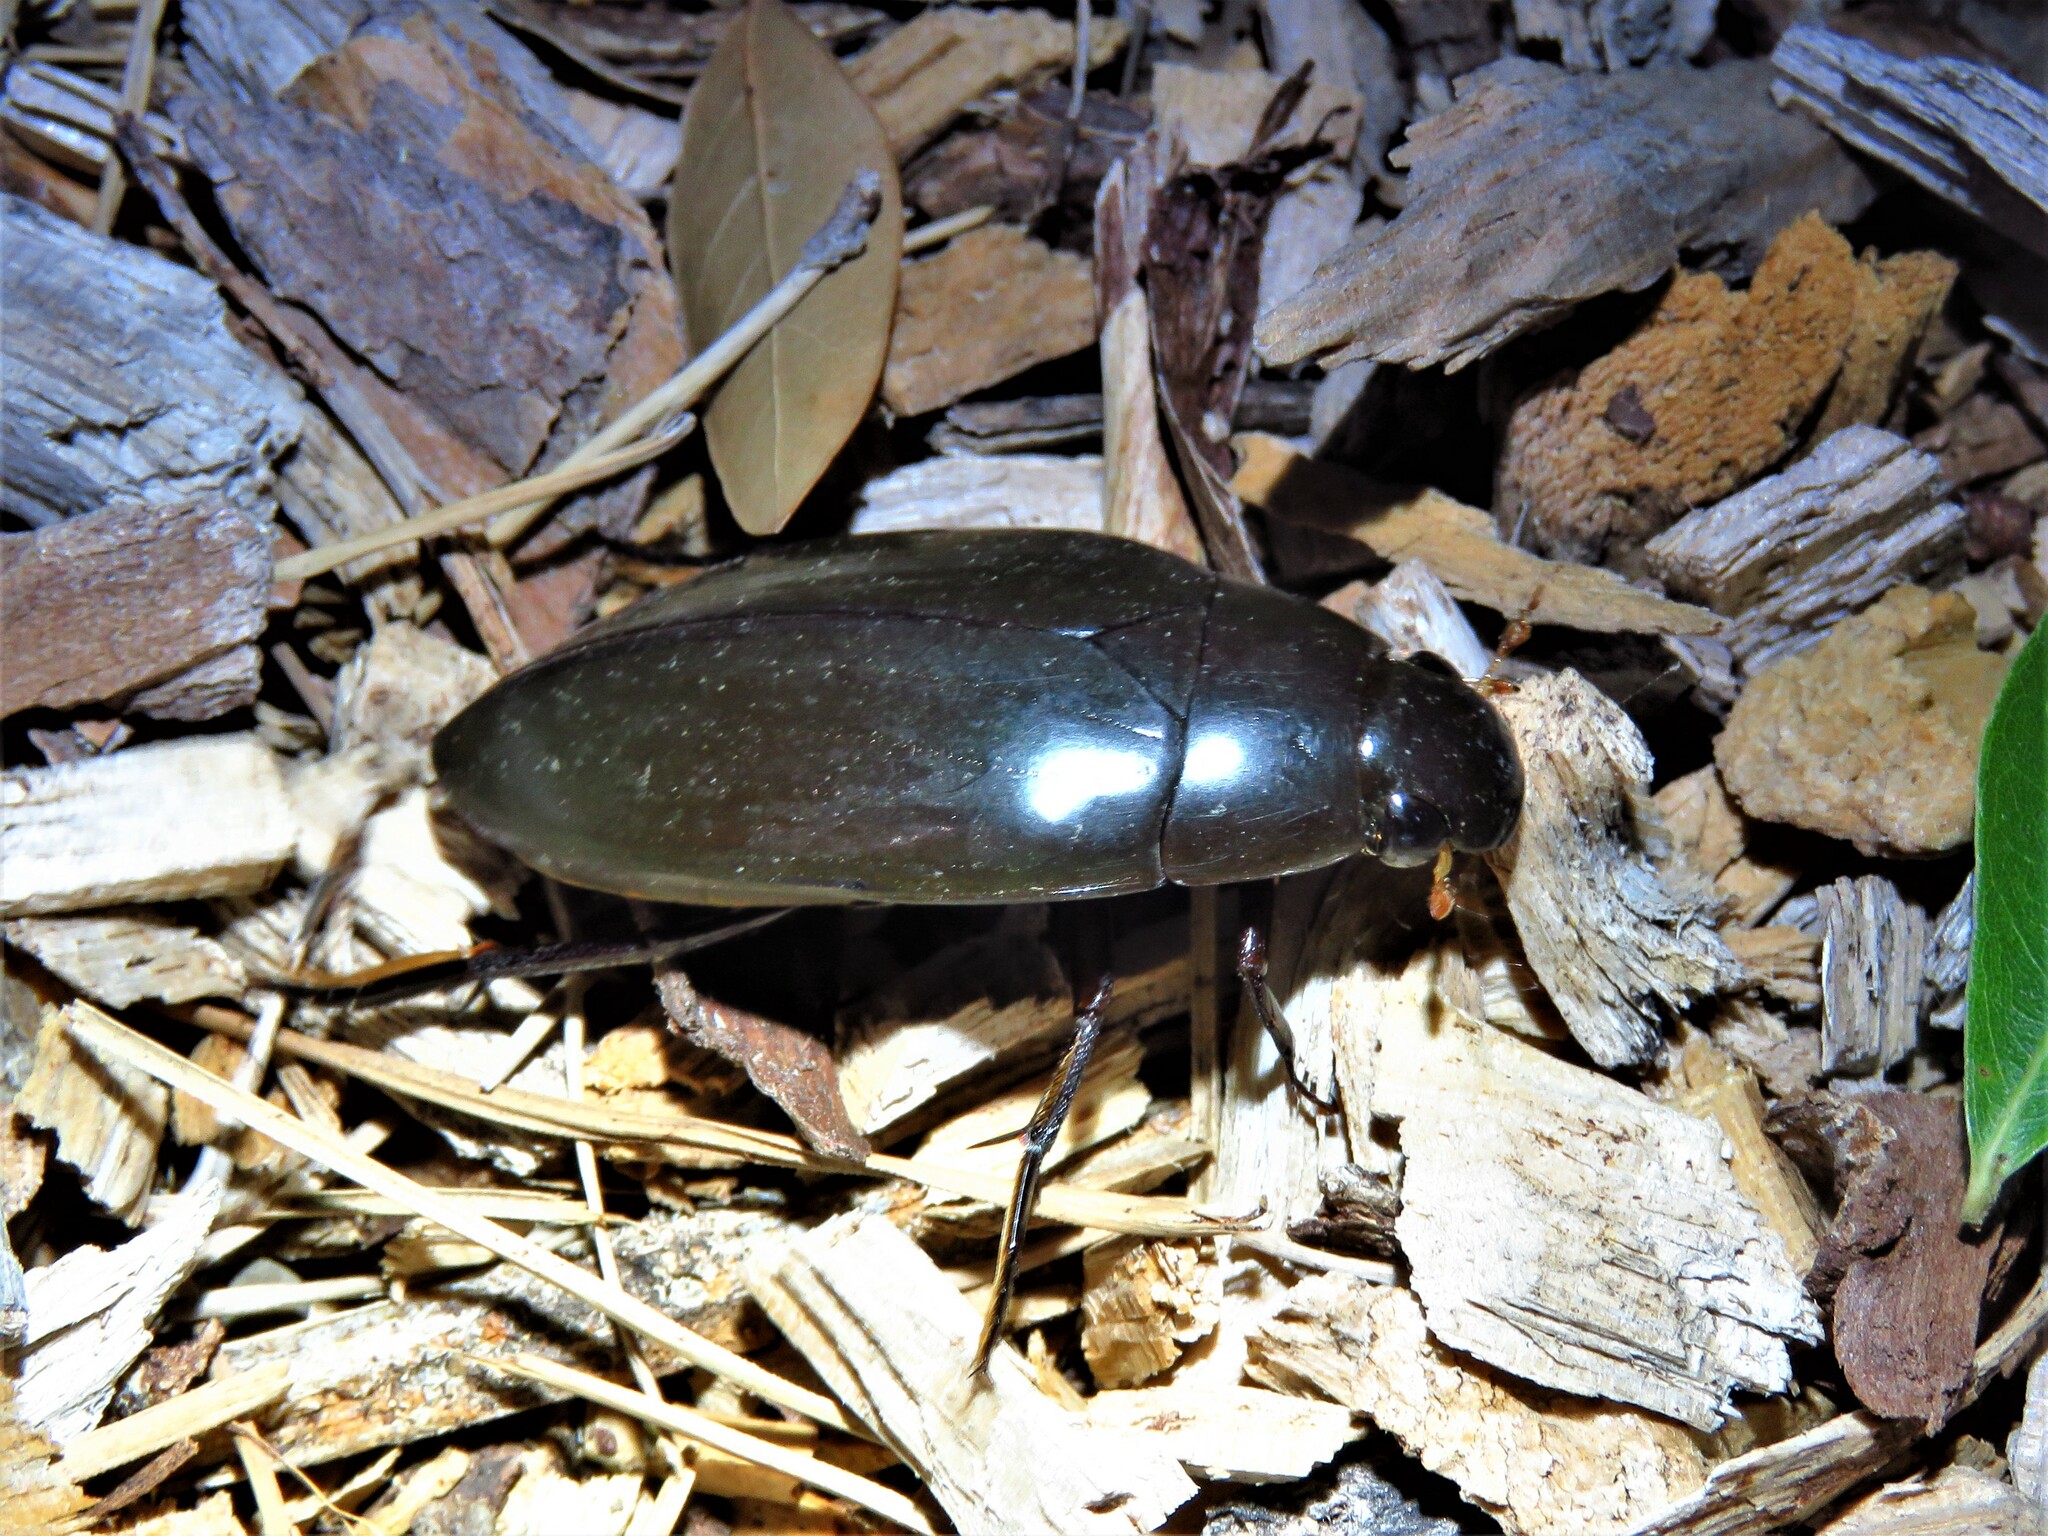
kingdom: Animalia
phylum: Arthropoda
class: Insecta
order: Coleoptera
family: Hydrophilidae
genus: Hydrophilus
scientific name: Hydrophilus
